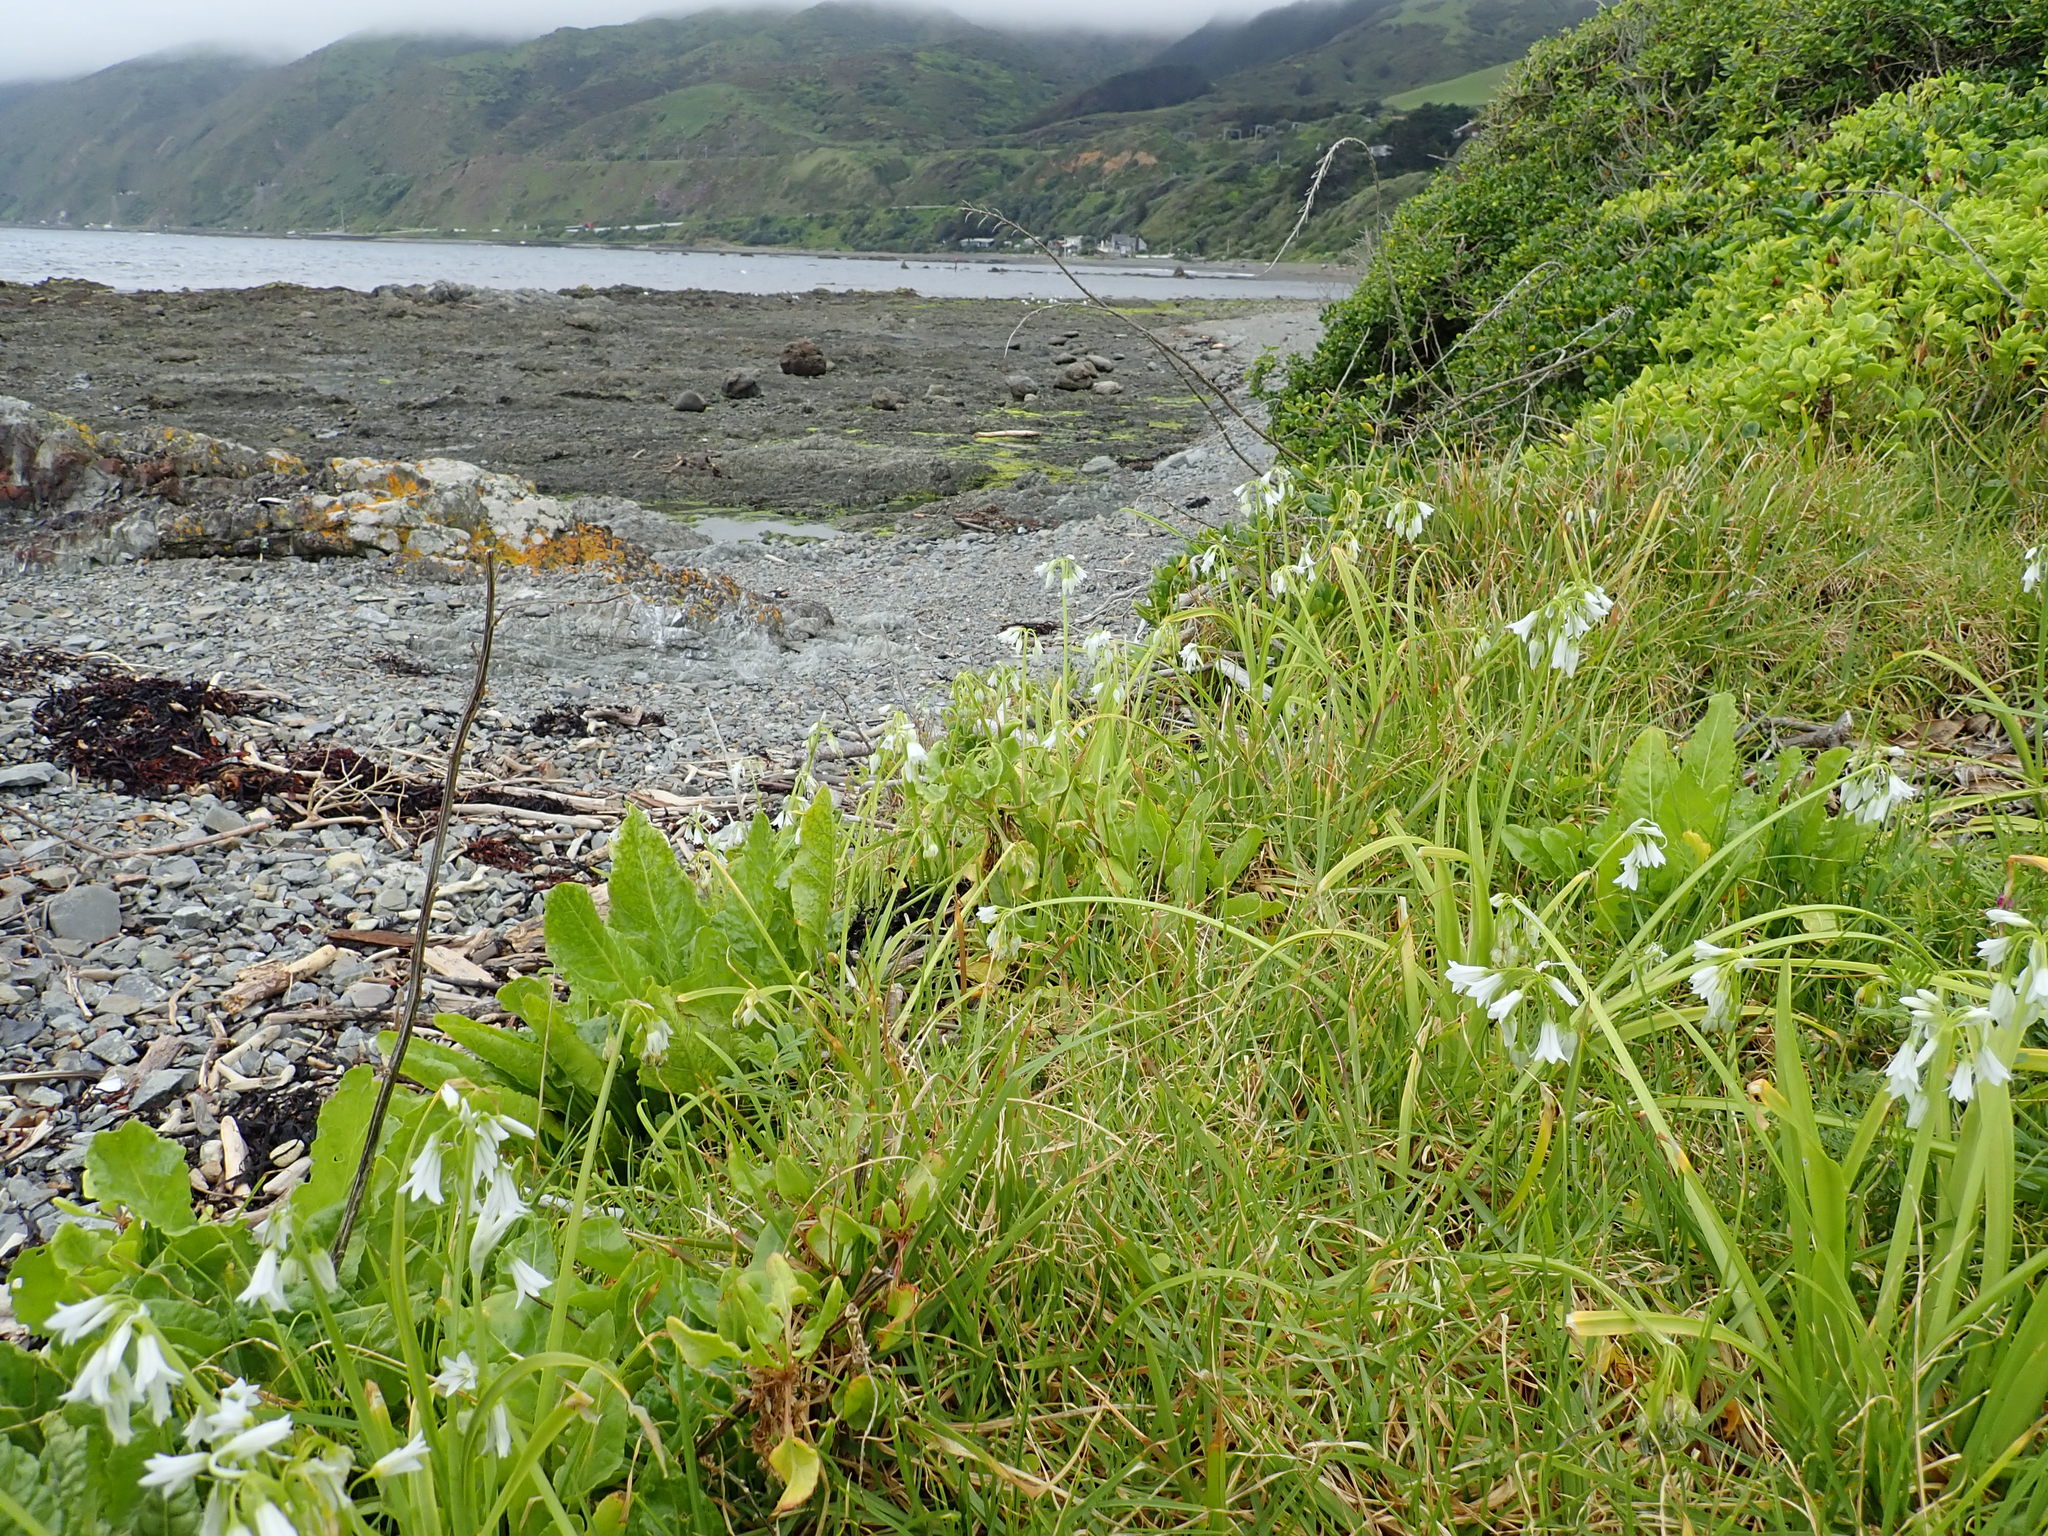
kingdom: Plantae
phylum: Tracheophyta
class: Liliopsida
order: Asparagales
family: Amaryllidaceae
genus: Allium
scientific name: Allium triquetrum
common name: Three-cornered garlic
